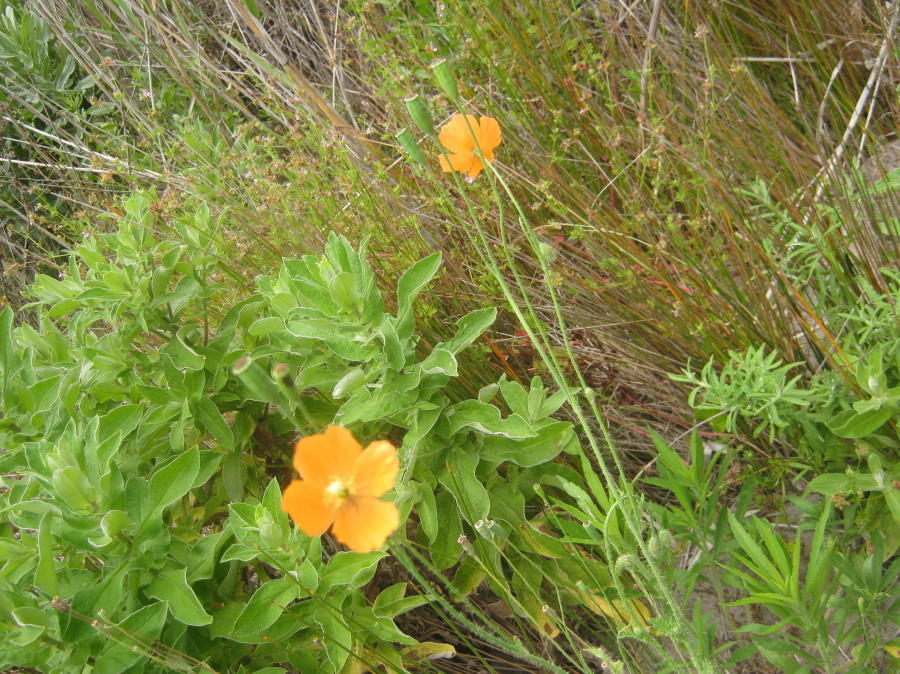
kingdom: Plantae
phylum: Tracheophyta
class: Magnoliopsida
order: Ranunculales
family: Papaveraceae
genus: Papaver
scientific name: Papaver aculeatum
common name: Bristle poppy
